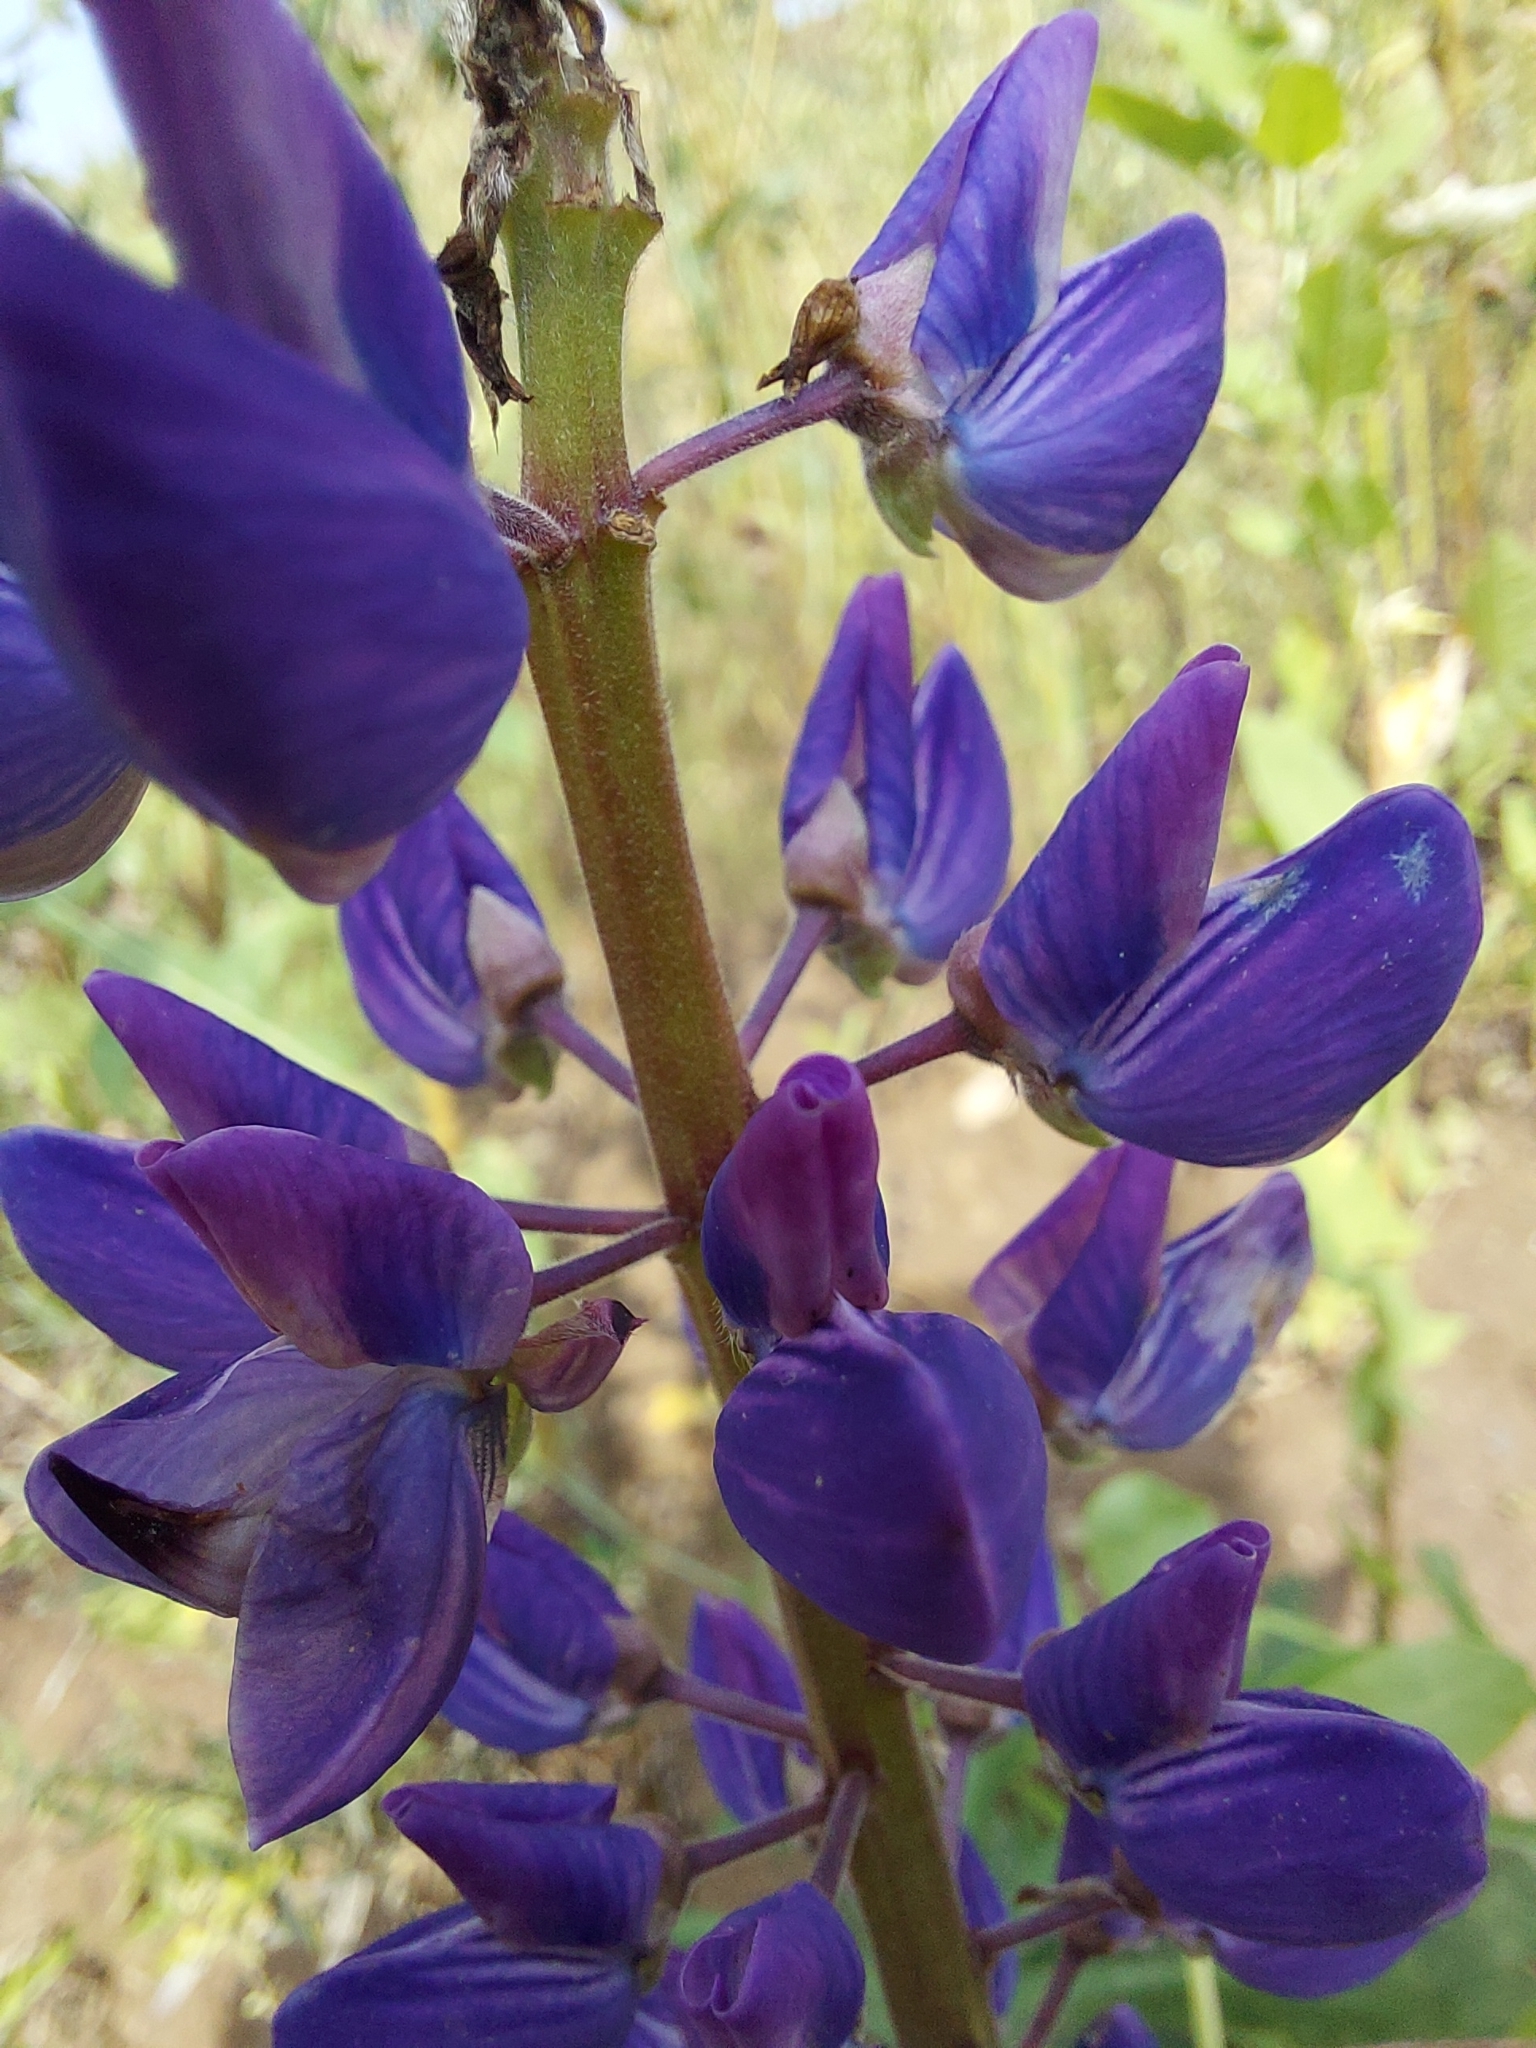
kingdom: Plantae
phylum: Tracheophyta
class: Magnoliopsida
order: Fabales
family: Fabaceae
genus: Lupinus
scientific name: Lupinus polyphyllus
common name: Garden lupin
